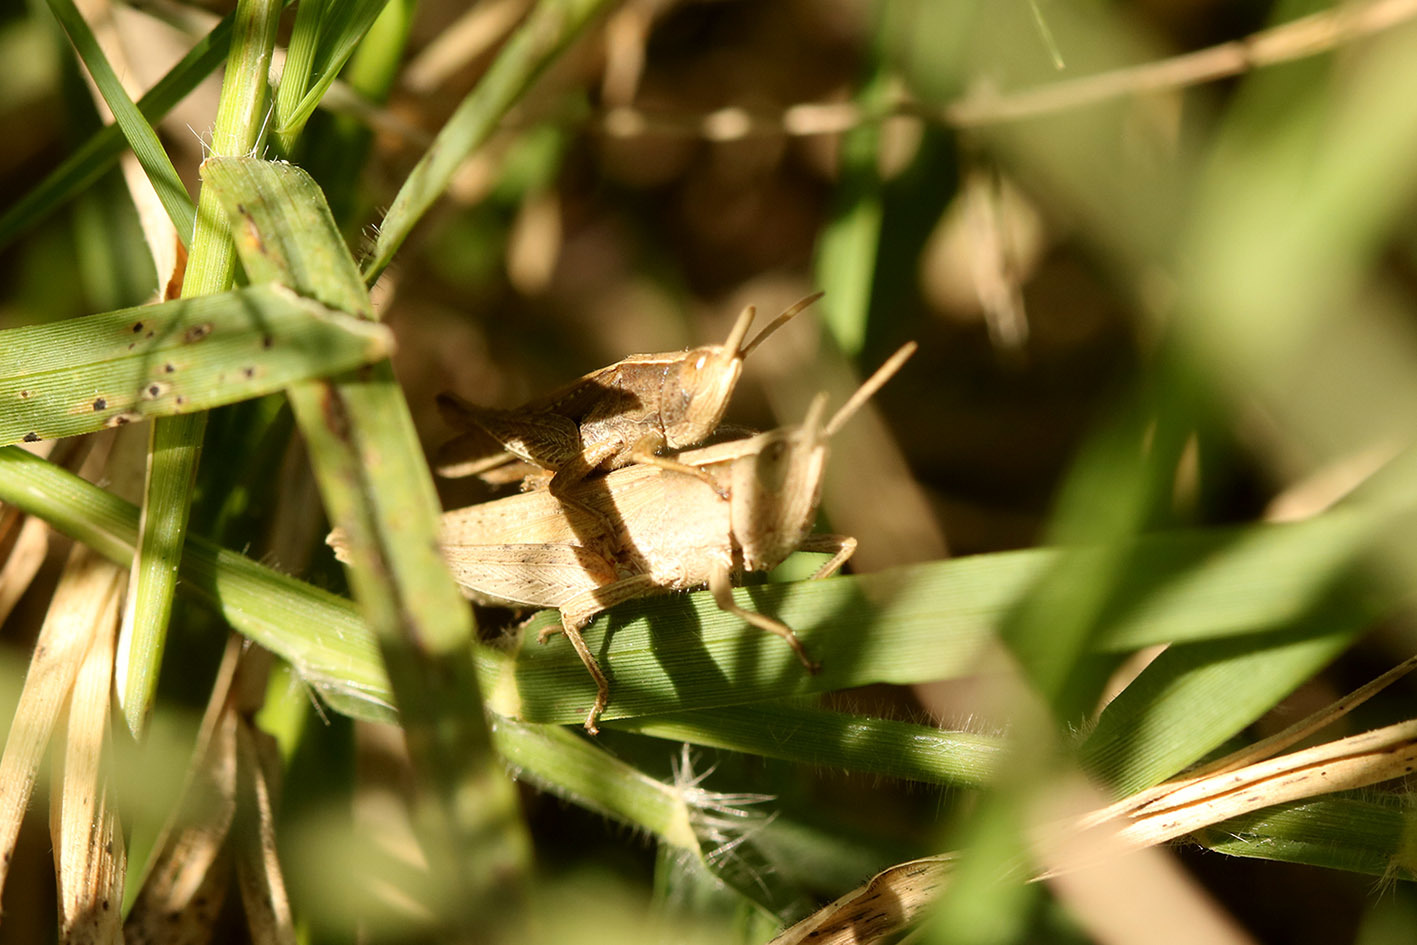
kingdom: Animalia
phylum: Arthropoda
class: Insecta
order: Orthoptera
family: Acrididae
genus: Laplatacris
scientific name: Laplatacris dispar
